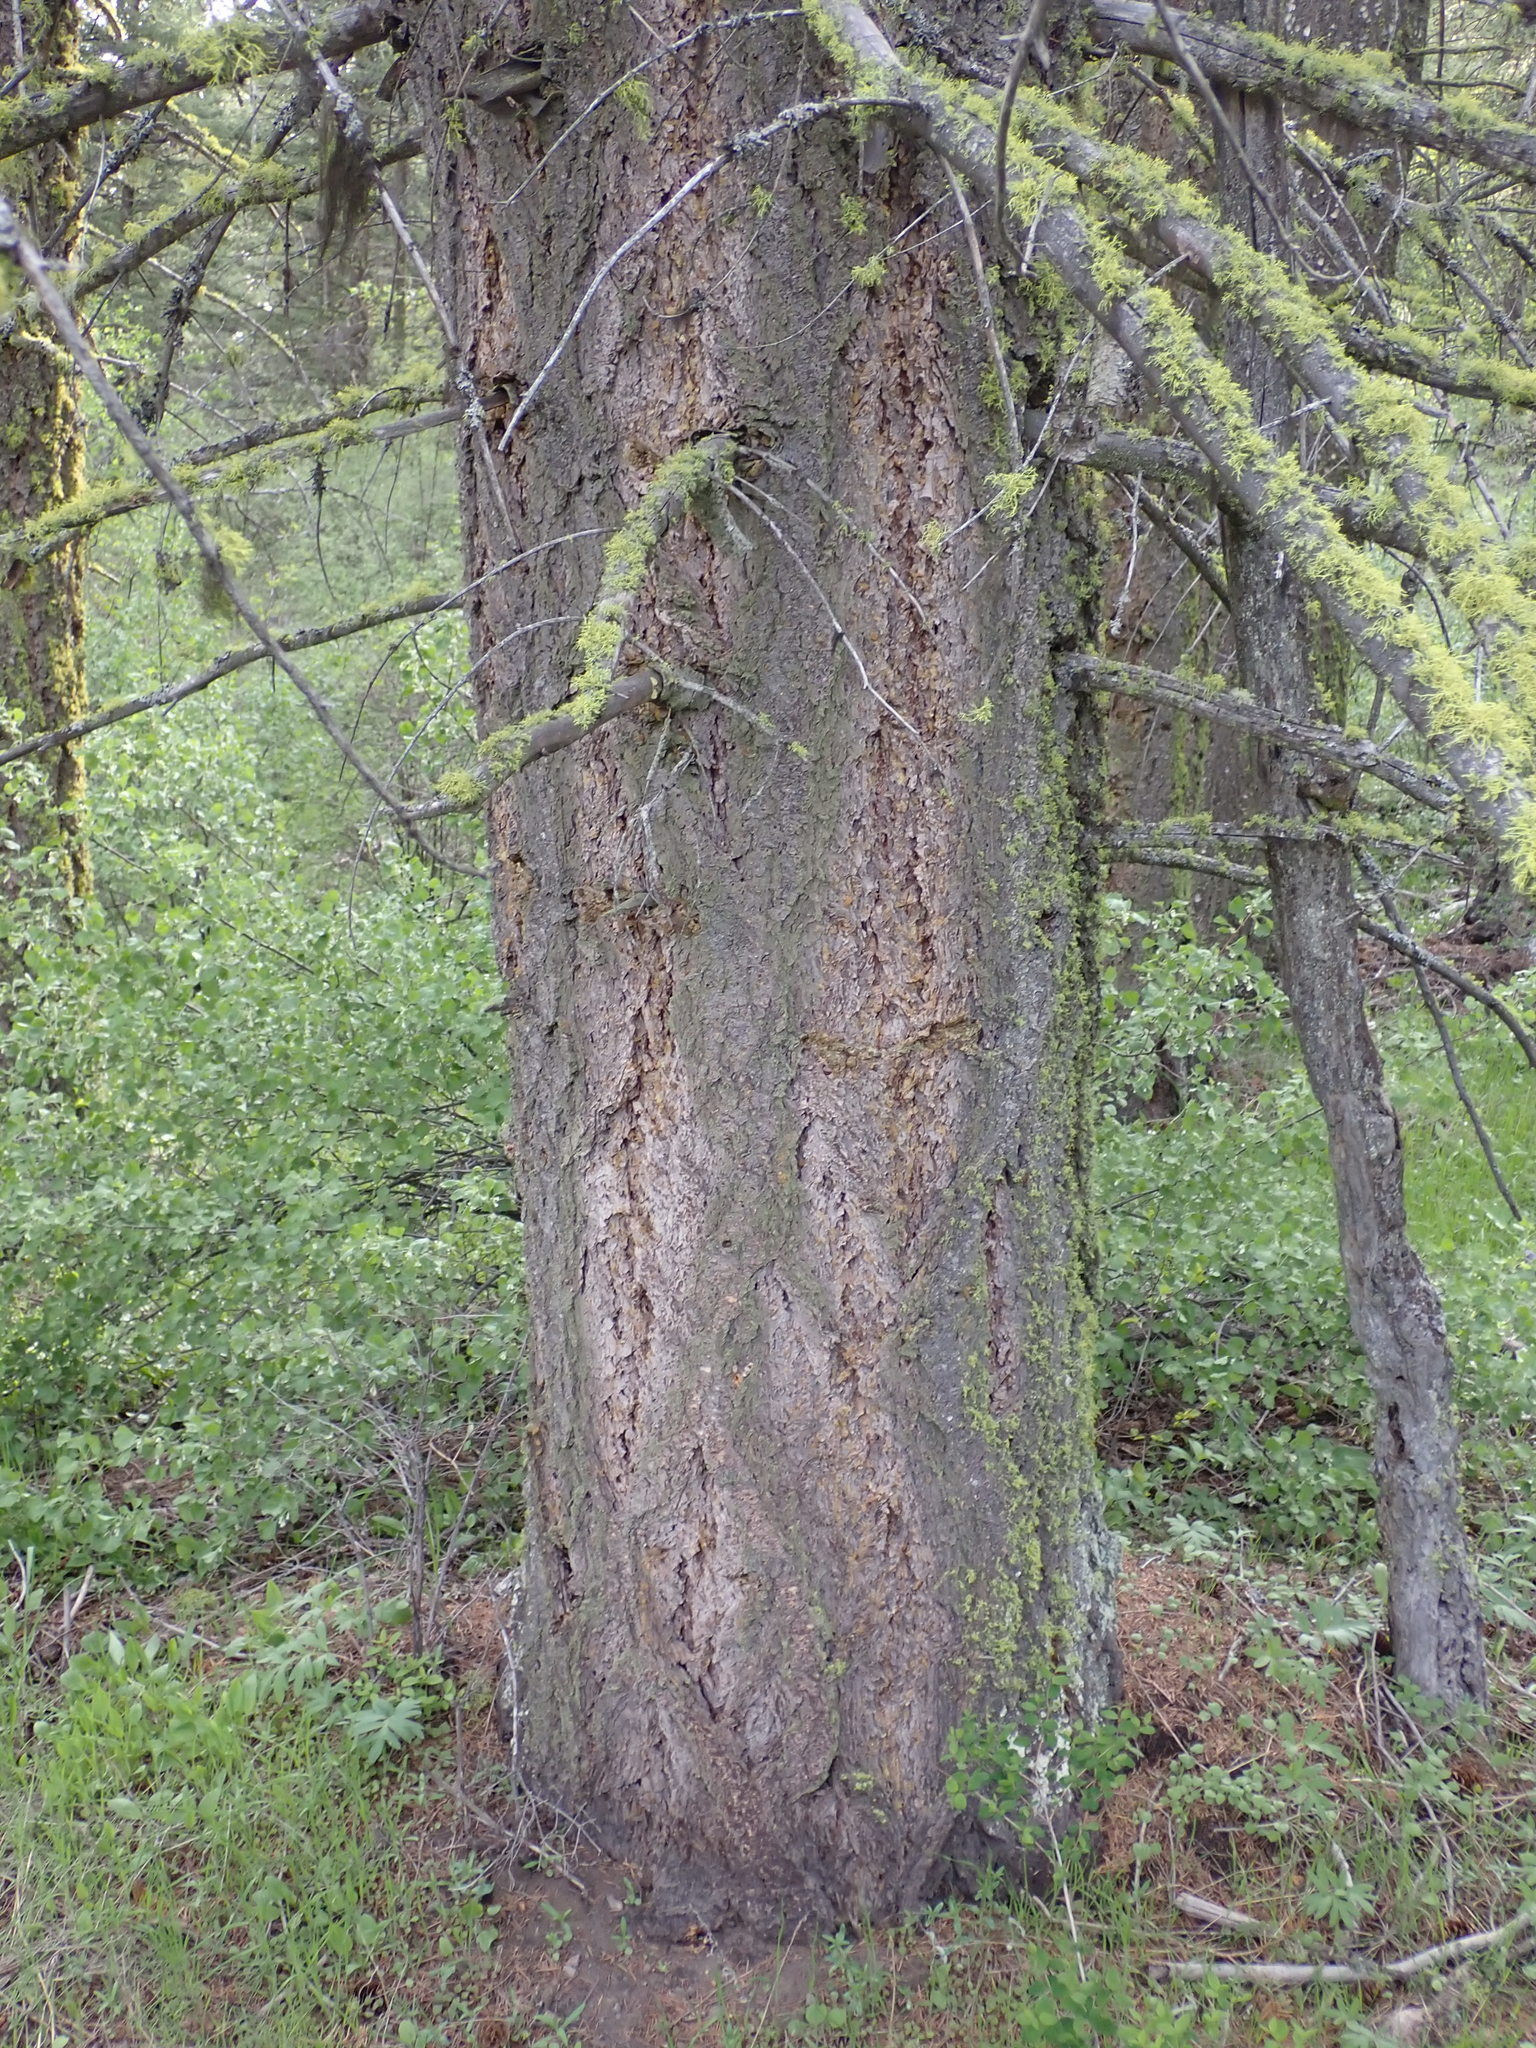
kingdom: Plantae
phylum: Tracheophyta
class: Pinopsida
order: Pinales
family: Pinaceae
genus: Pseudotsuga
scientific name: Pseudotsuga menziesii
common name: Douglas fir
